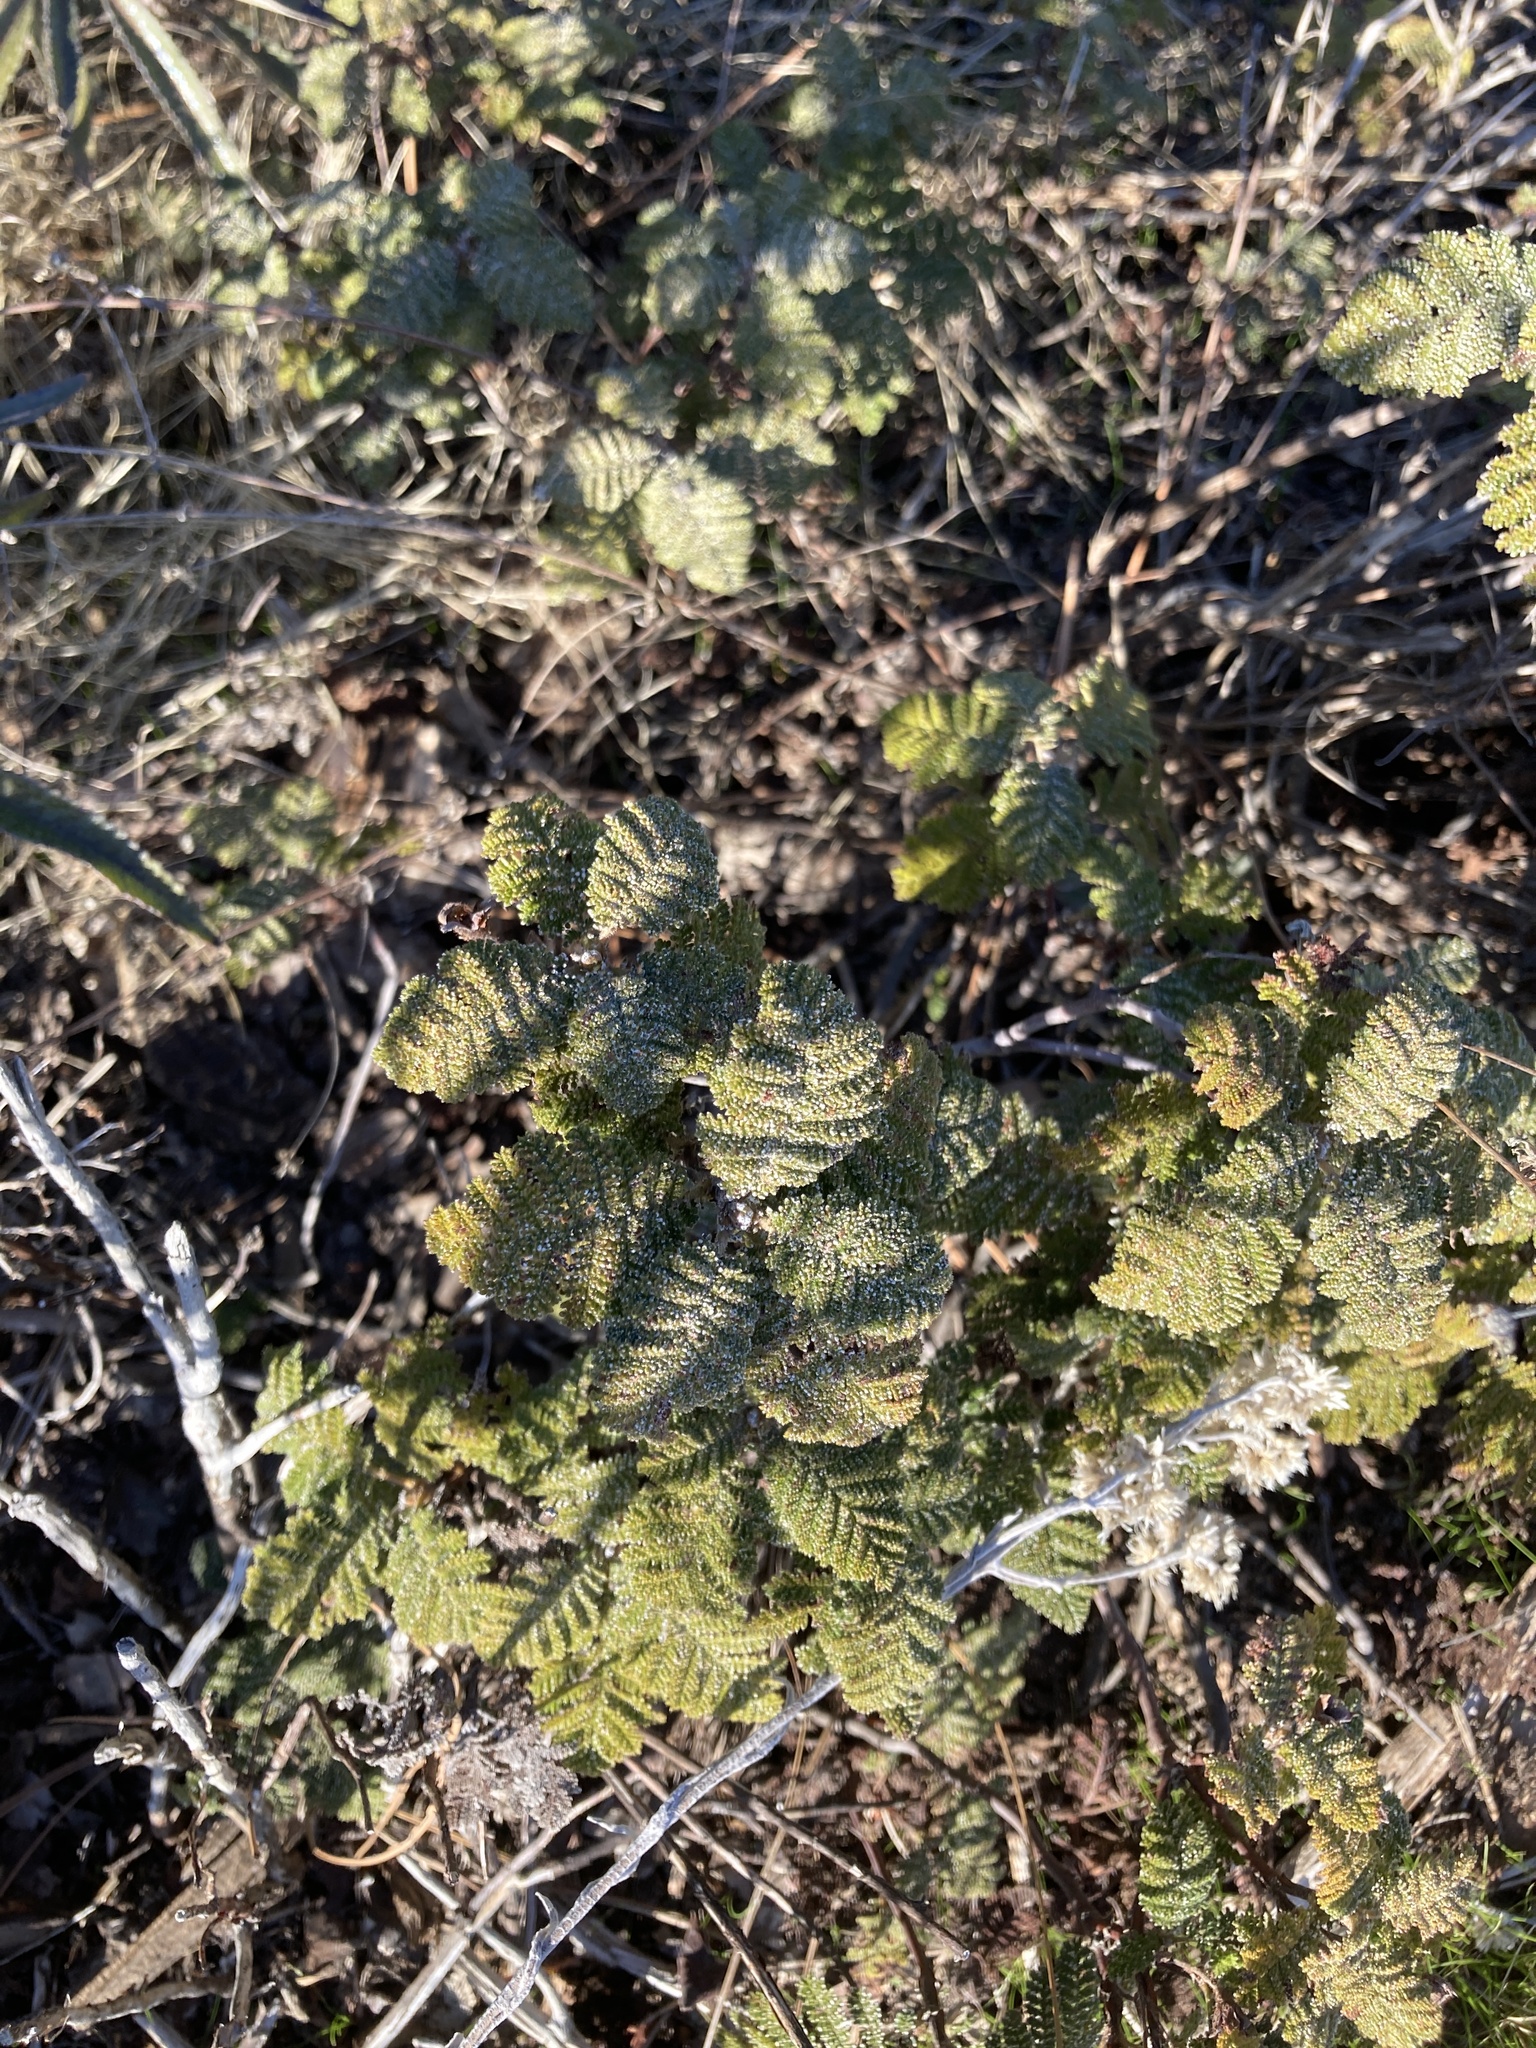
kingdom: Plantae
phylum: Tracheophyta
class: Magnoliopsida
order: Rosales
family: Rosaceae
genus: Chamaebatia
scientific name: Chamaebatia foliolosa
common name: Mountain misery
